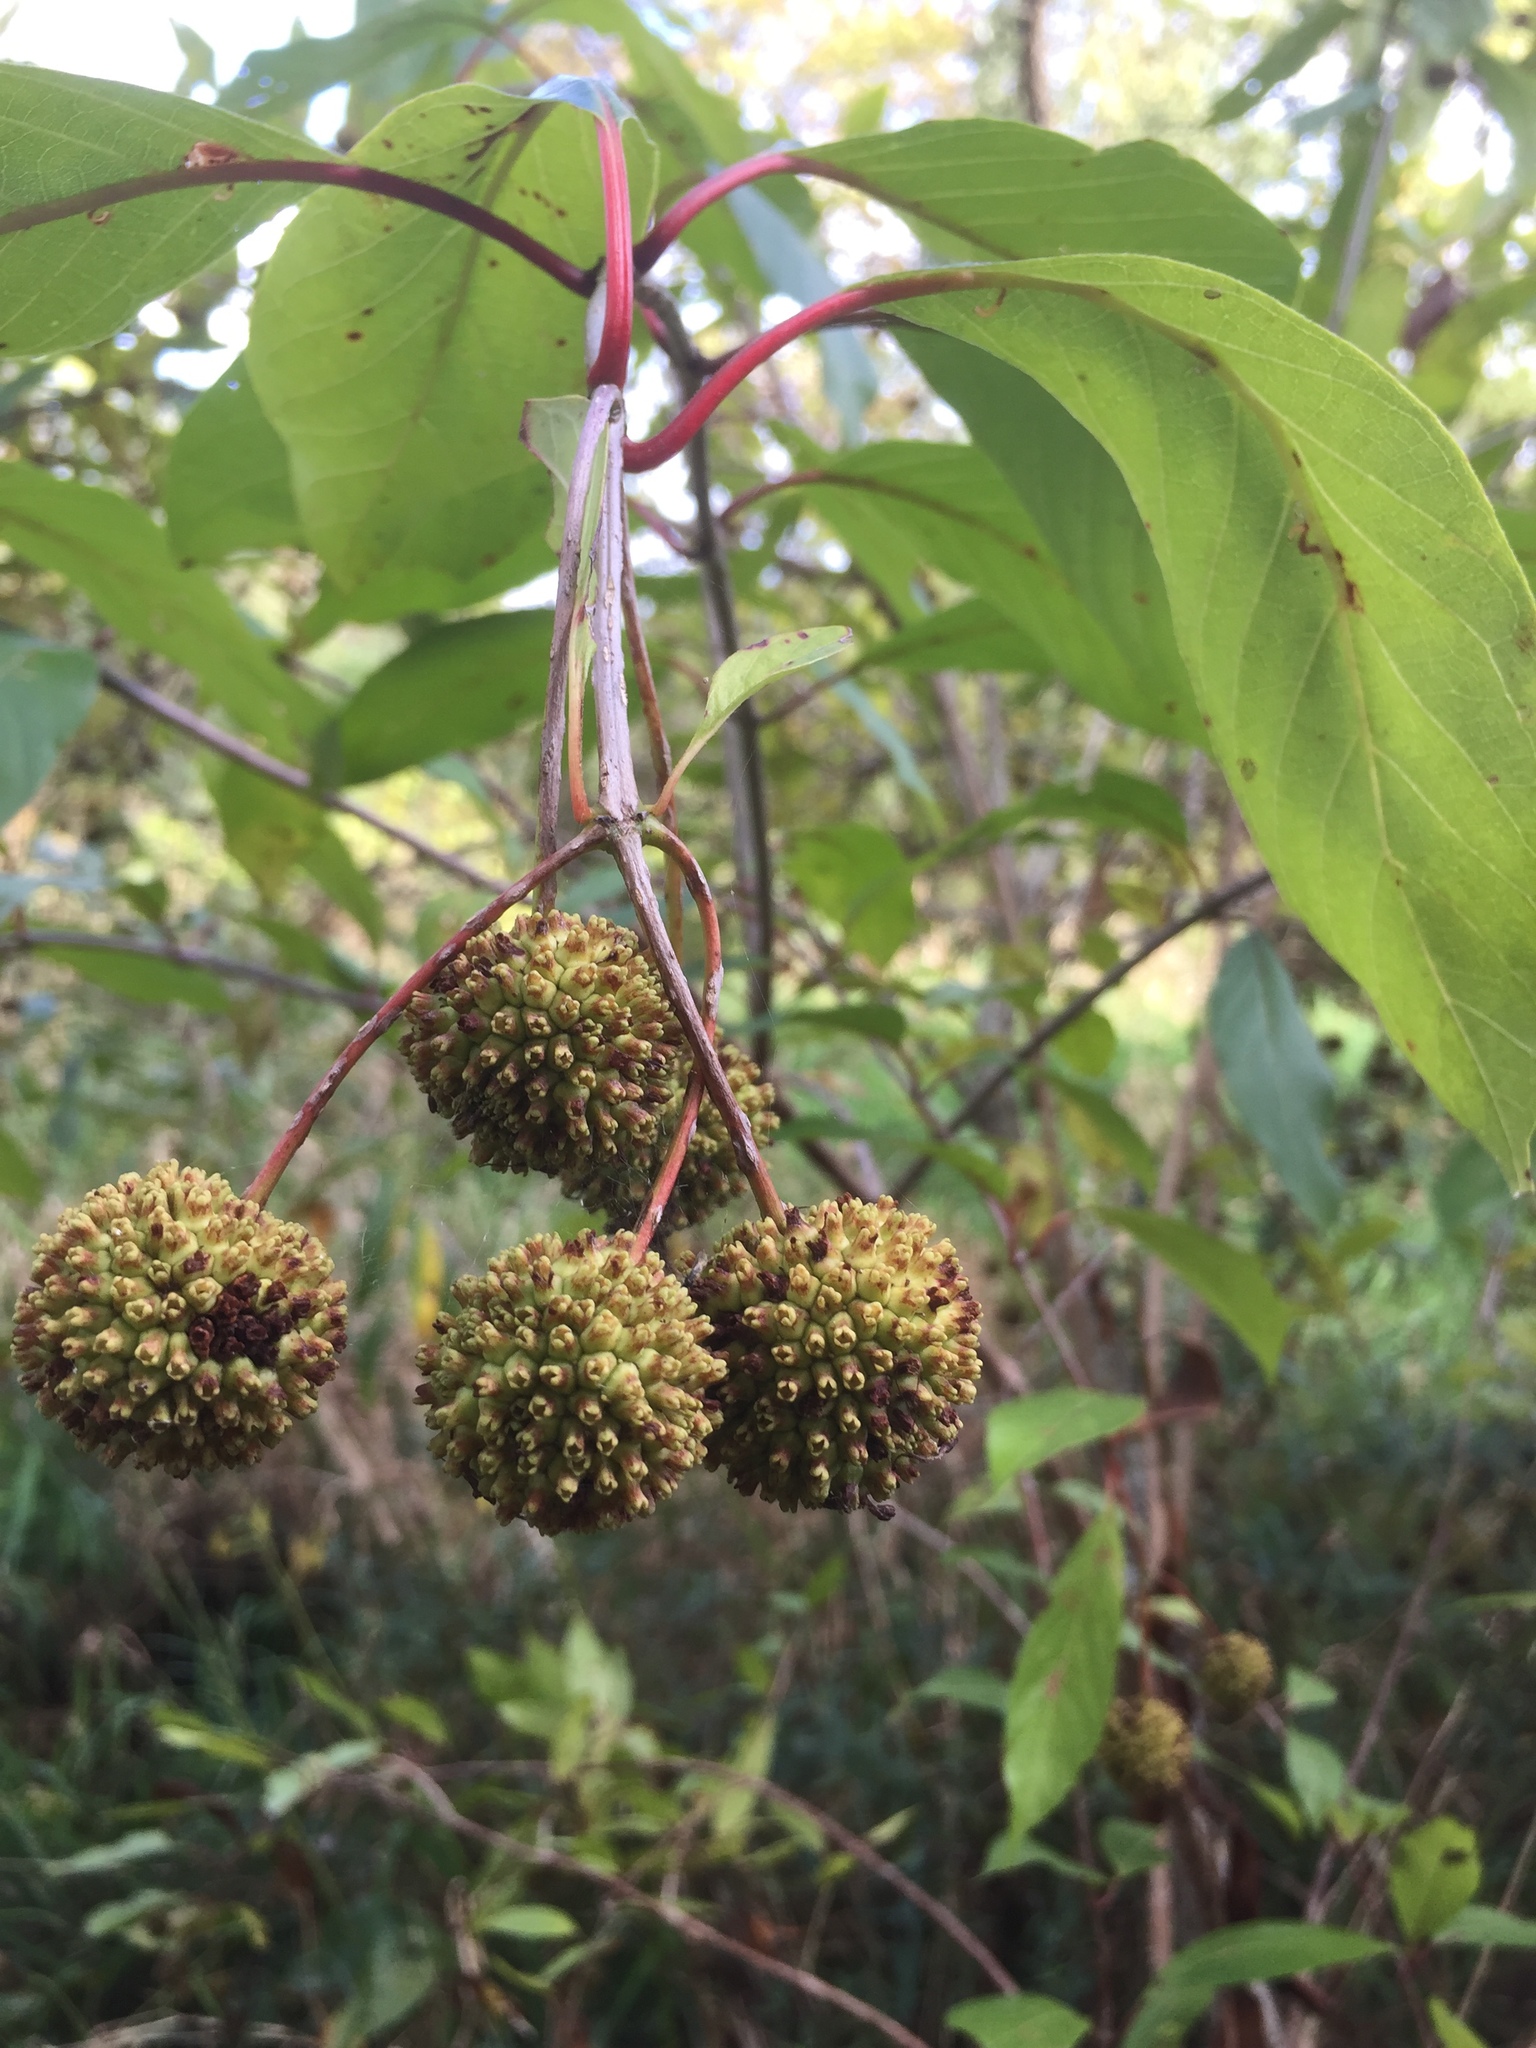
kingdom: Plantae
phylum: Tracheophyta
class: Magnoliopsida
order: Gentianales
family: Rubiaceae
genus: Cephalanthus
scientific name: Cephalanthus occidentalis
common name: Button-willow
